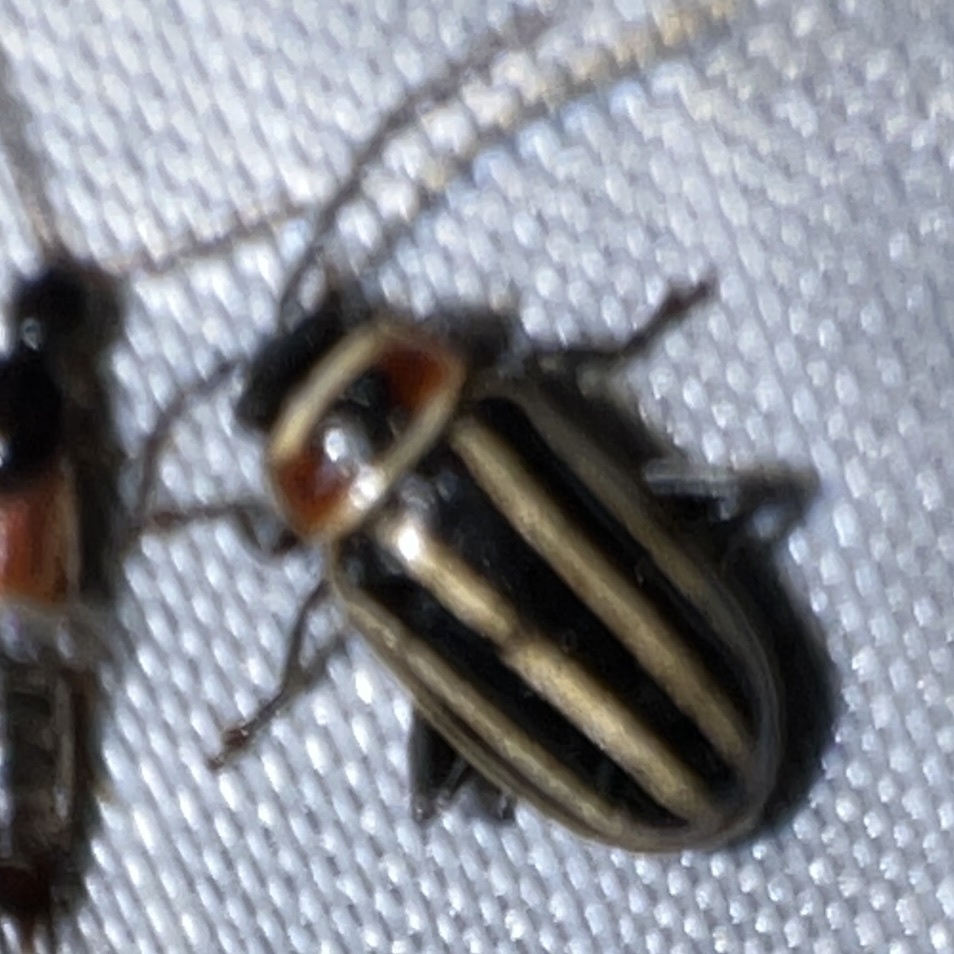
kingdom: Animalia
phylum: Arthropoda
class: Insecta
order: Coleoptera
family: Chrysomelidae
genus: Disonycha
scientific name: Disonycha pensylvanica
